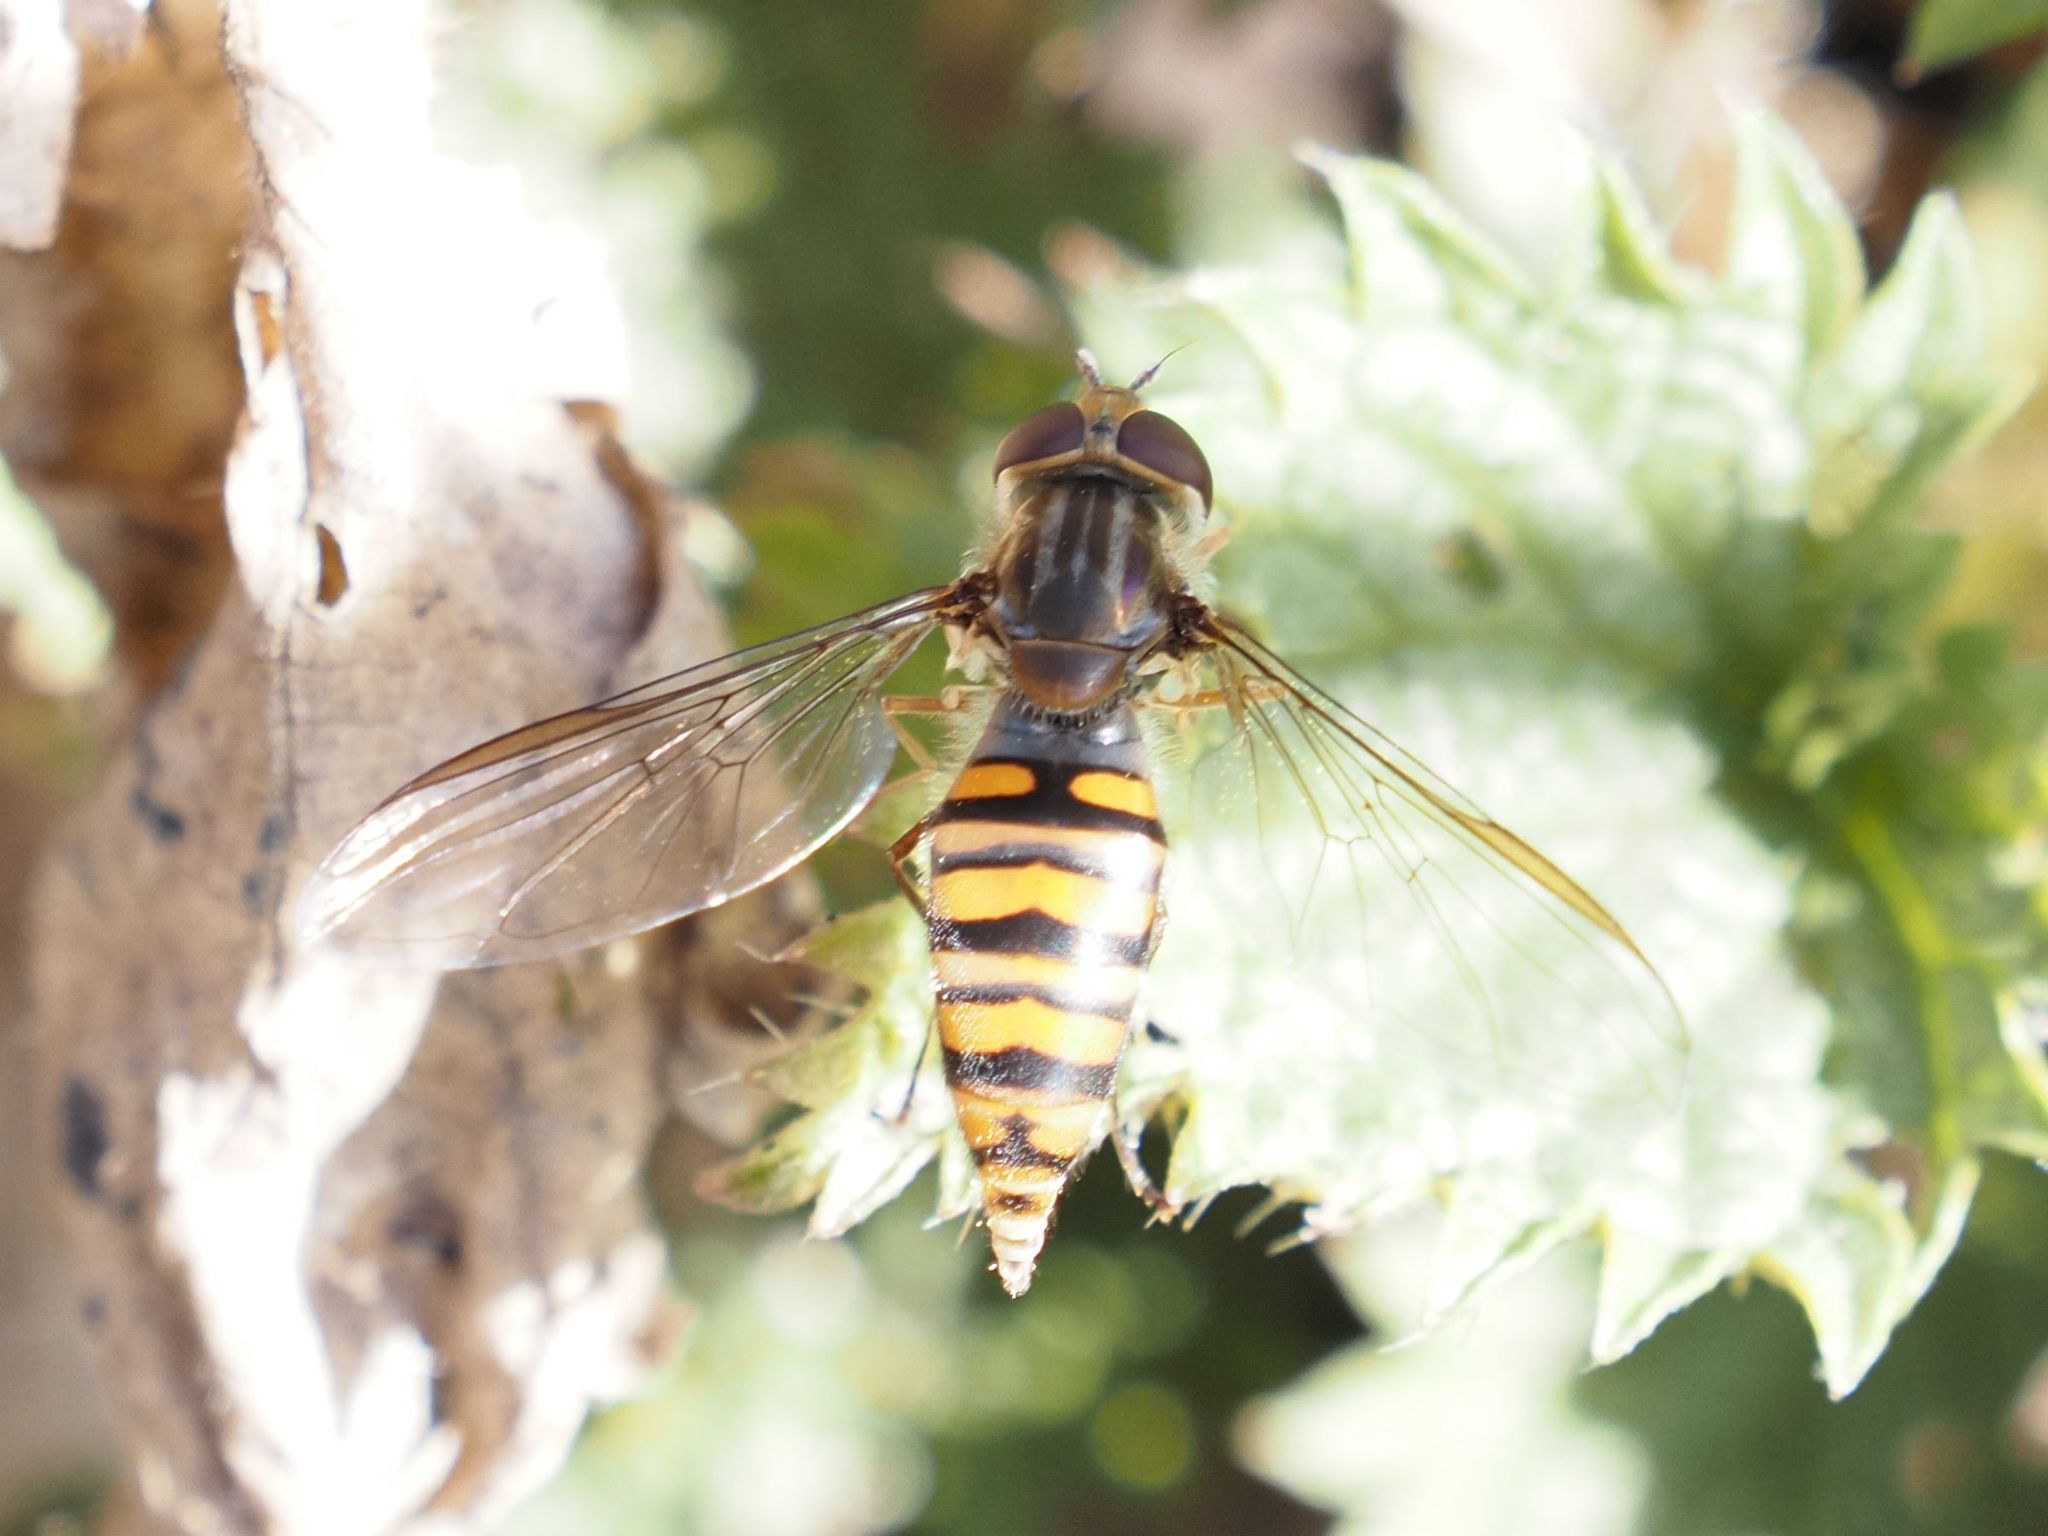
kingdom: Animalia
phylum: Arthropoda
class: Insecta
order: Diptera
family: Syrphidae
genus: Episyrphus
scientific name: Episyrphus balteatus
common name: Marmalade hoverfly
